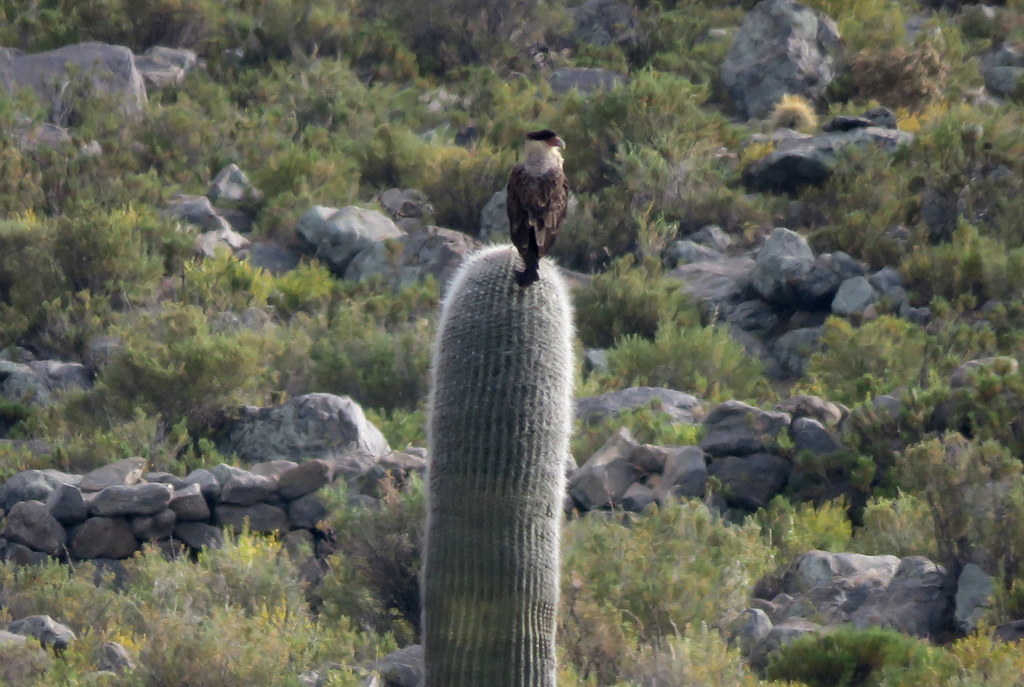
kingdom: Animalia
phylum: Chordata
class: Aves
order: Falconiformes
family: Falconidae
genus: Caracara
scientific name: Caracara plancus
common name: Southern caracara
